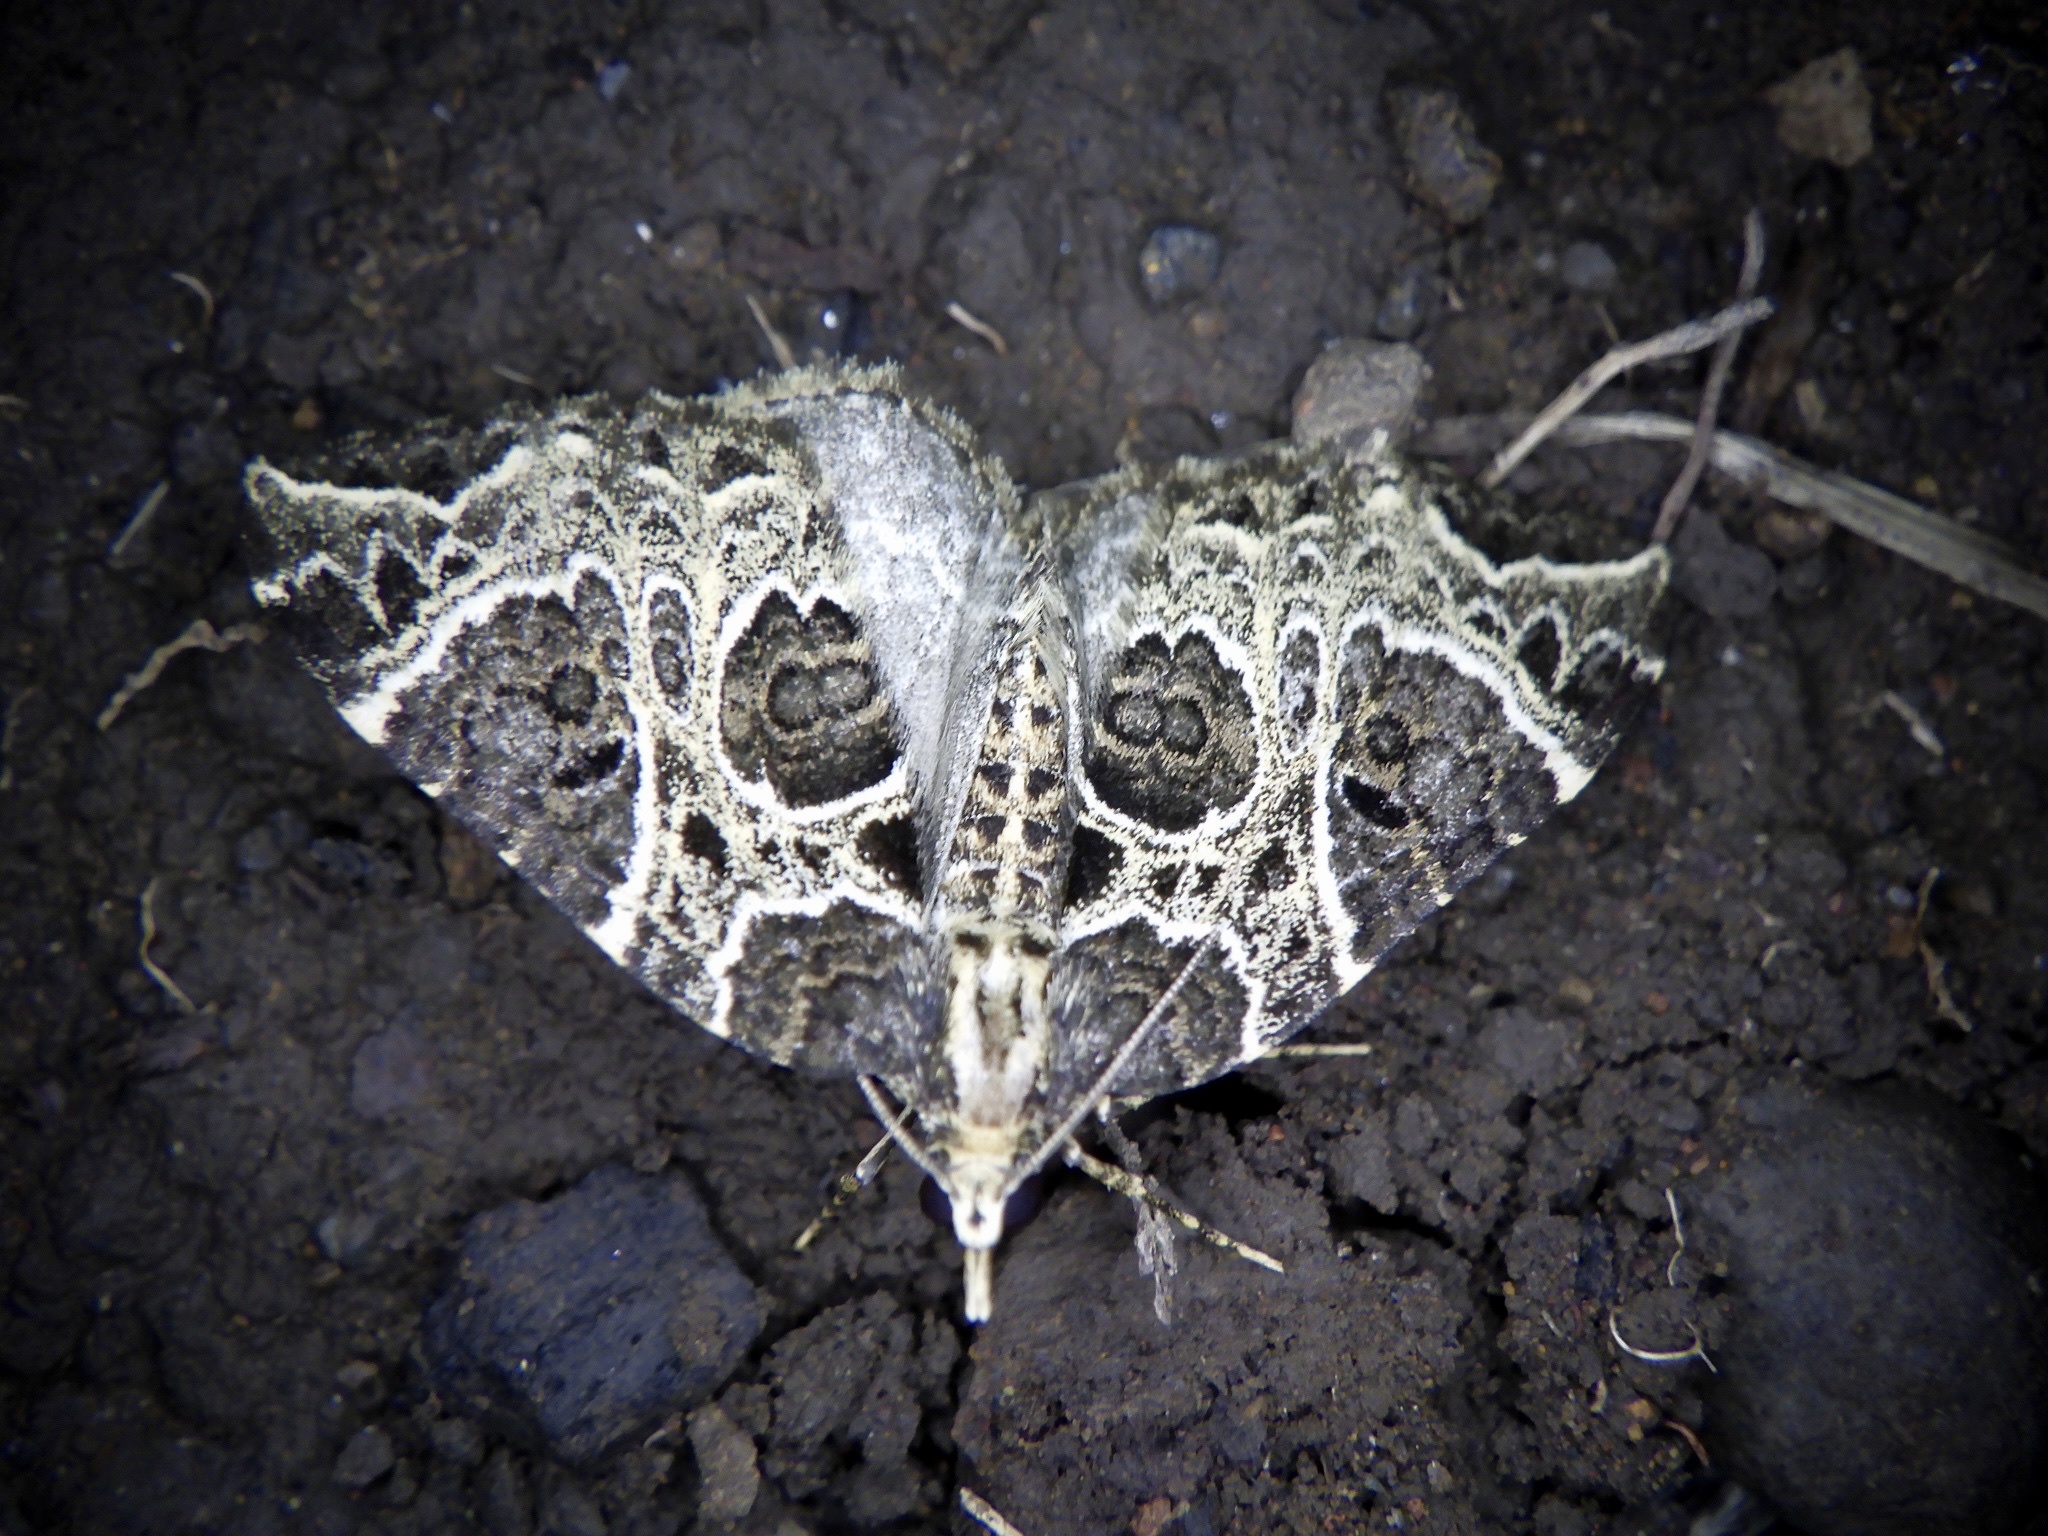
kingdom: Animalia
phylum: Arthropoda
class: Insecta
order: Lepidoptera
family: Geometridae
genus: Eustroma
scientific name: Eustroma melancholica
